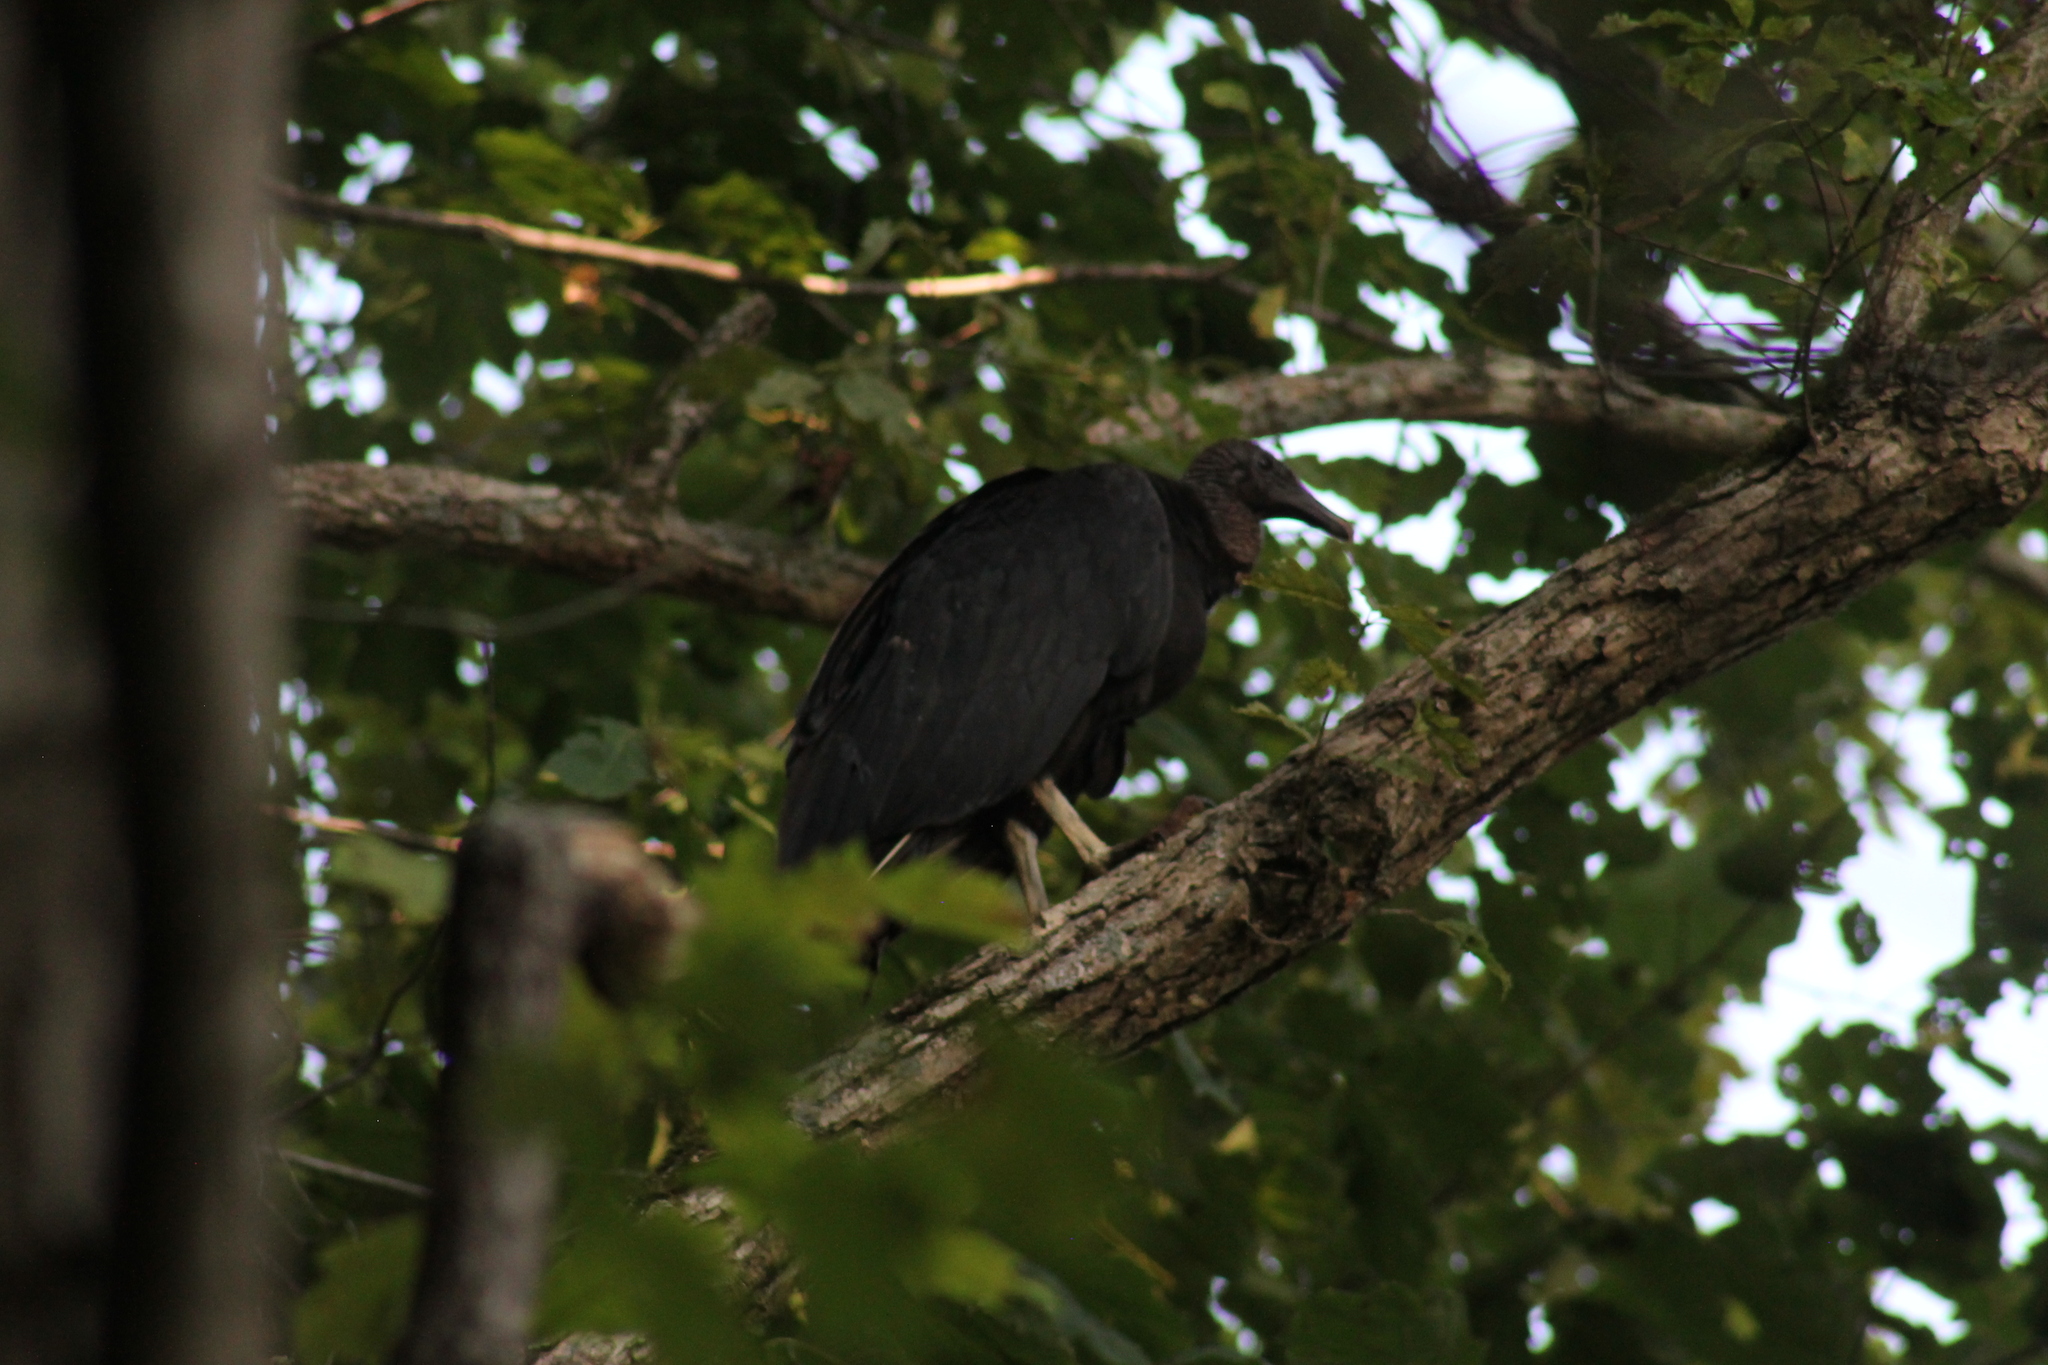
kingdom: Animalia
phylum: Chordata
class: Aves
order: Accipitriformes
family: Cathartidae
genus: Coragyps
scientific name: Coragyps atratus
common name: Black vulture
